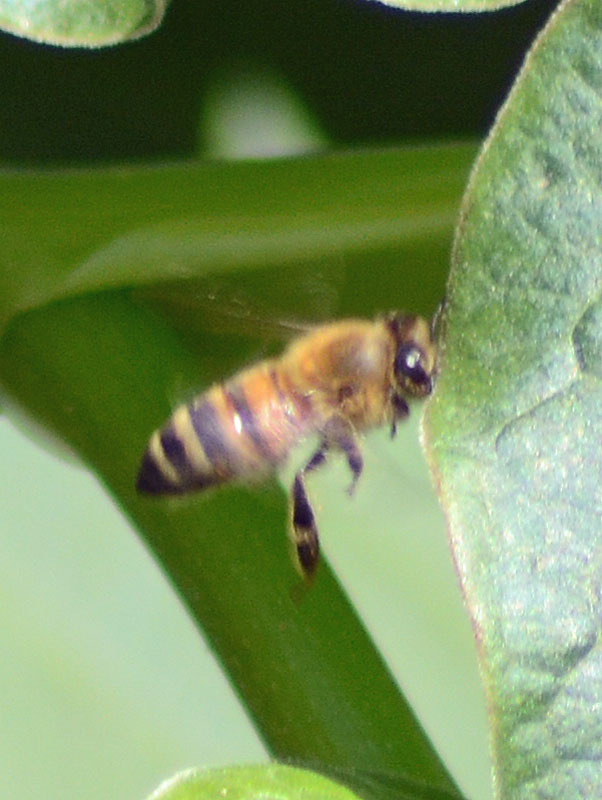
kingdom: Animalia
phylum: Arthropoda
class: Insecta
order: Hymenoptera
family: Apidae
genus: Apis
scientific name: Apis mellifera
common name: Honey bee
